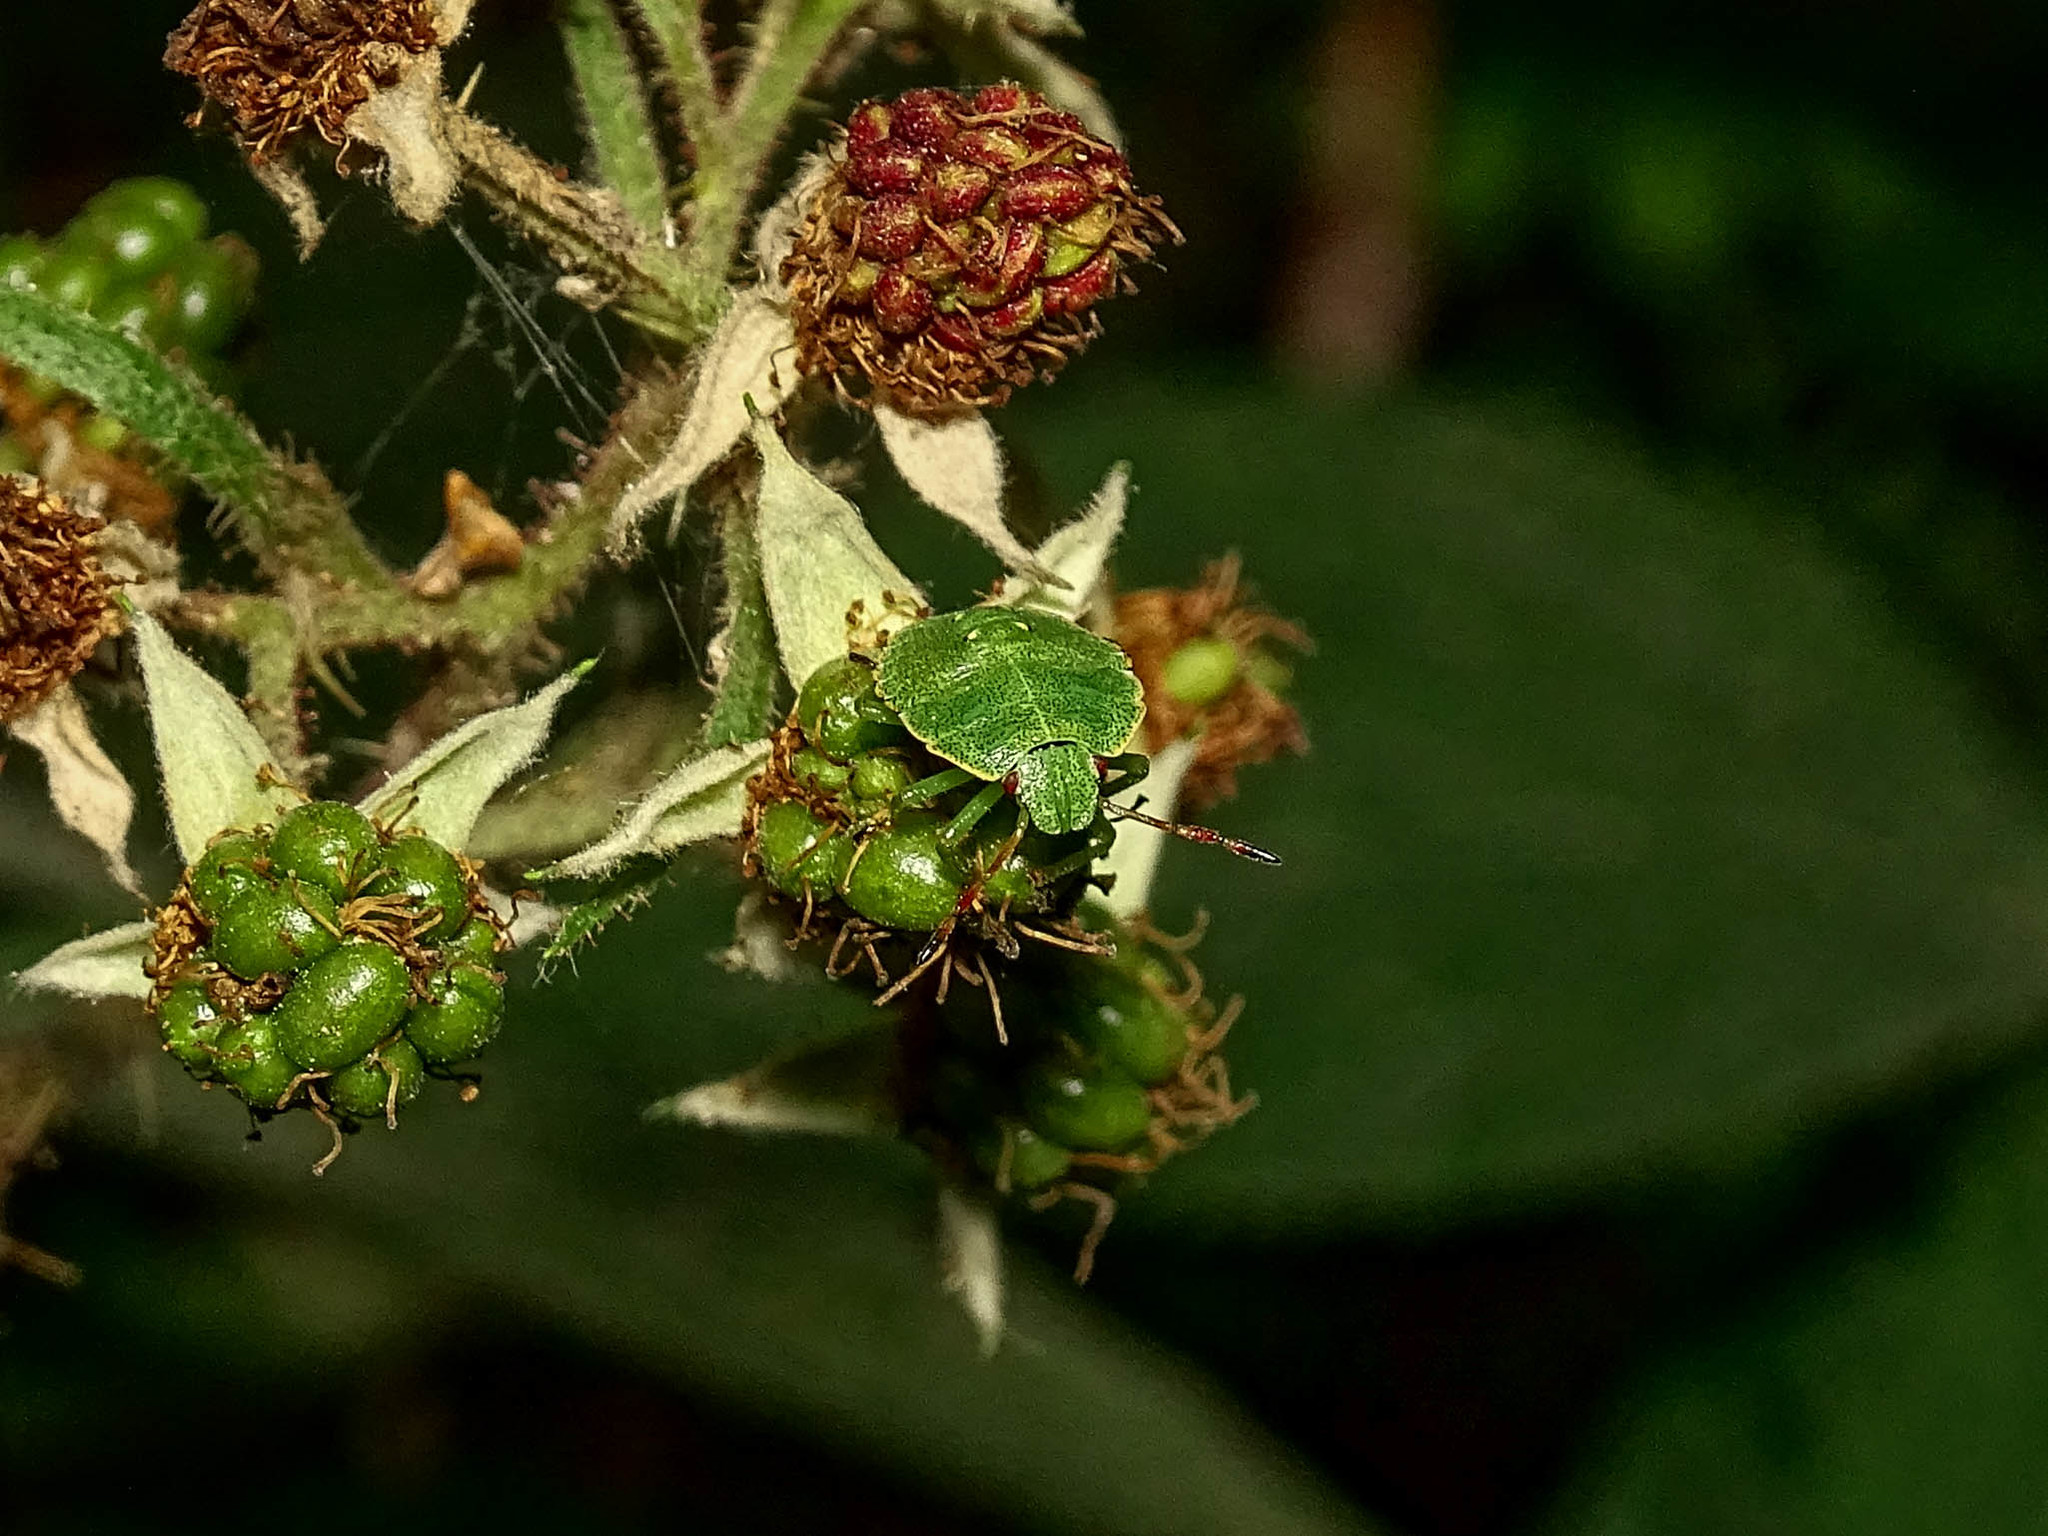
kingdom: Animalia
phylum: Arthropoda
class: Insecta
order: Hemiptera
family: Pentatomidae
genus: Palomena
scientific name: Palomena prasina
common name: Green shieldbug
